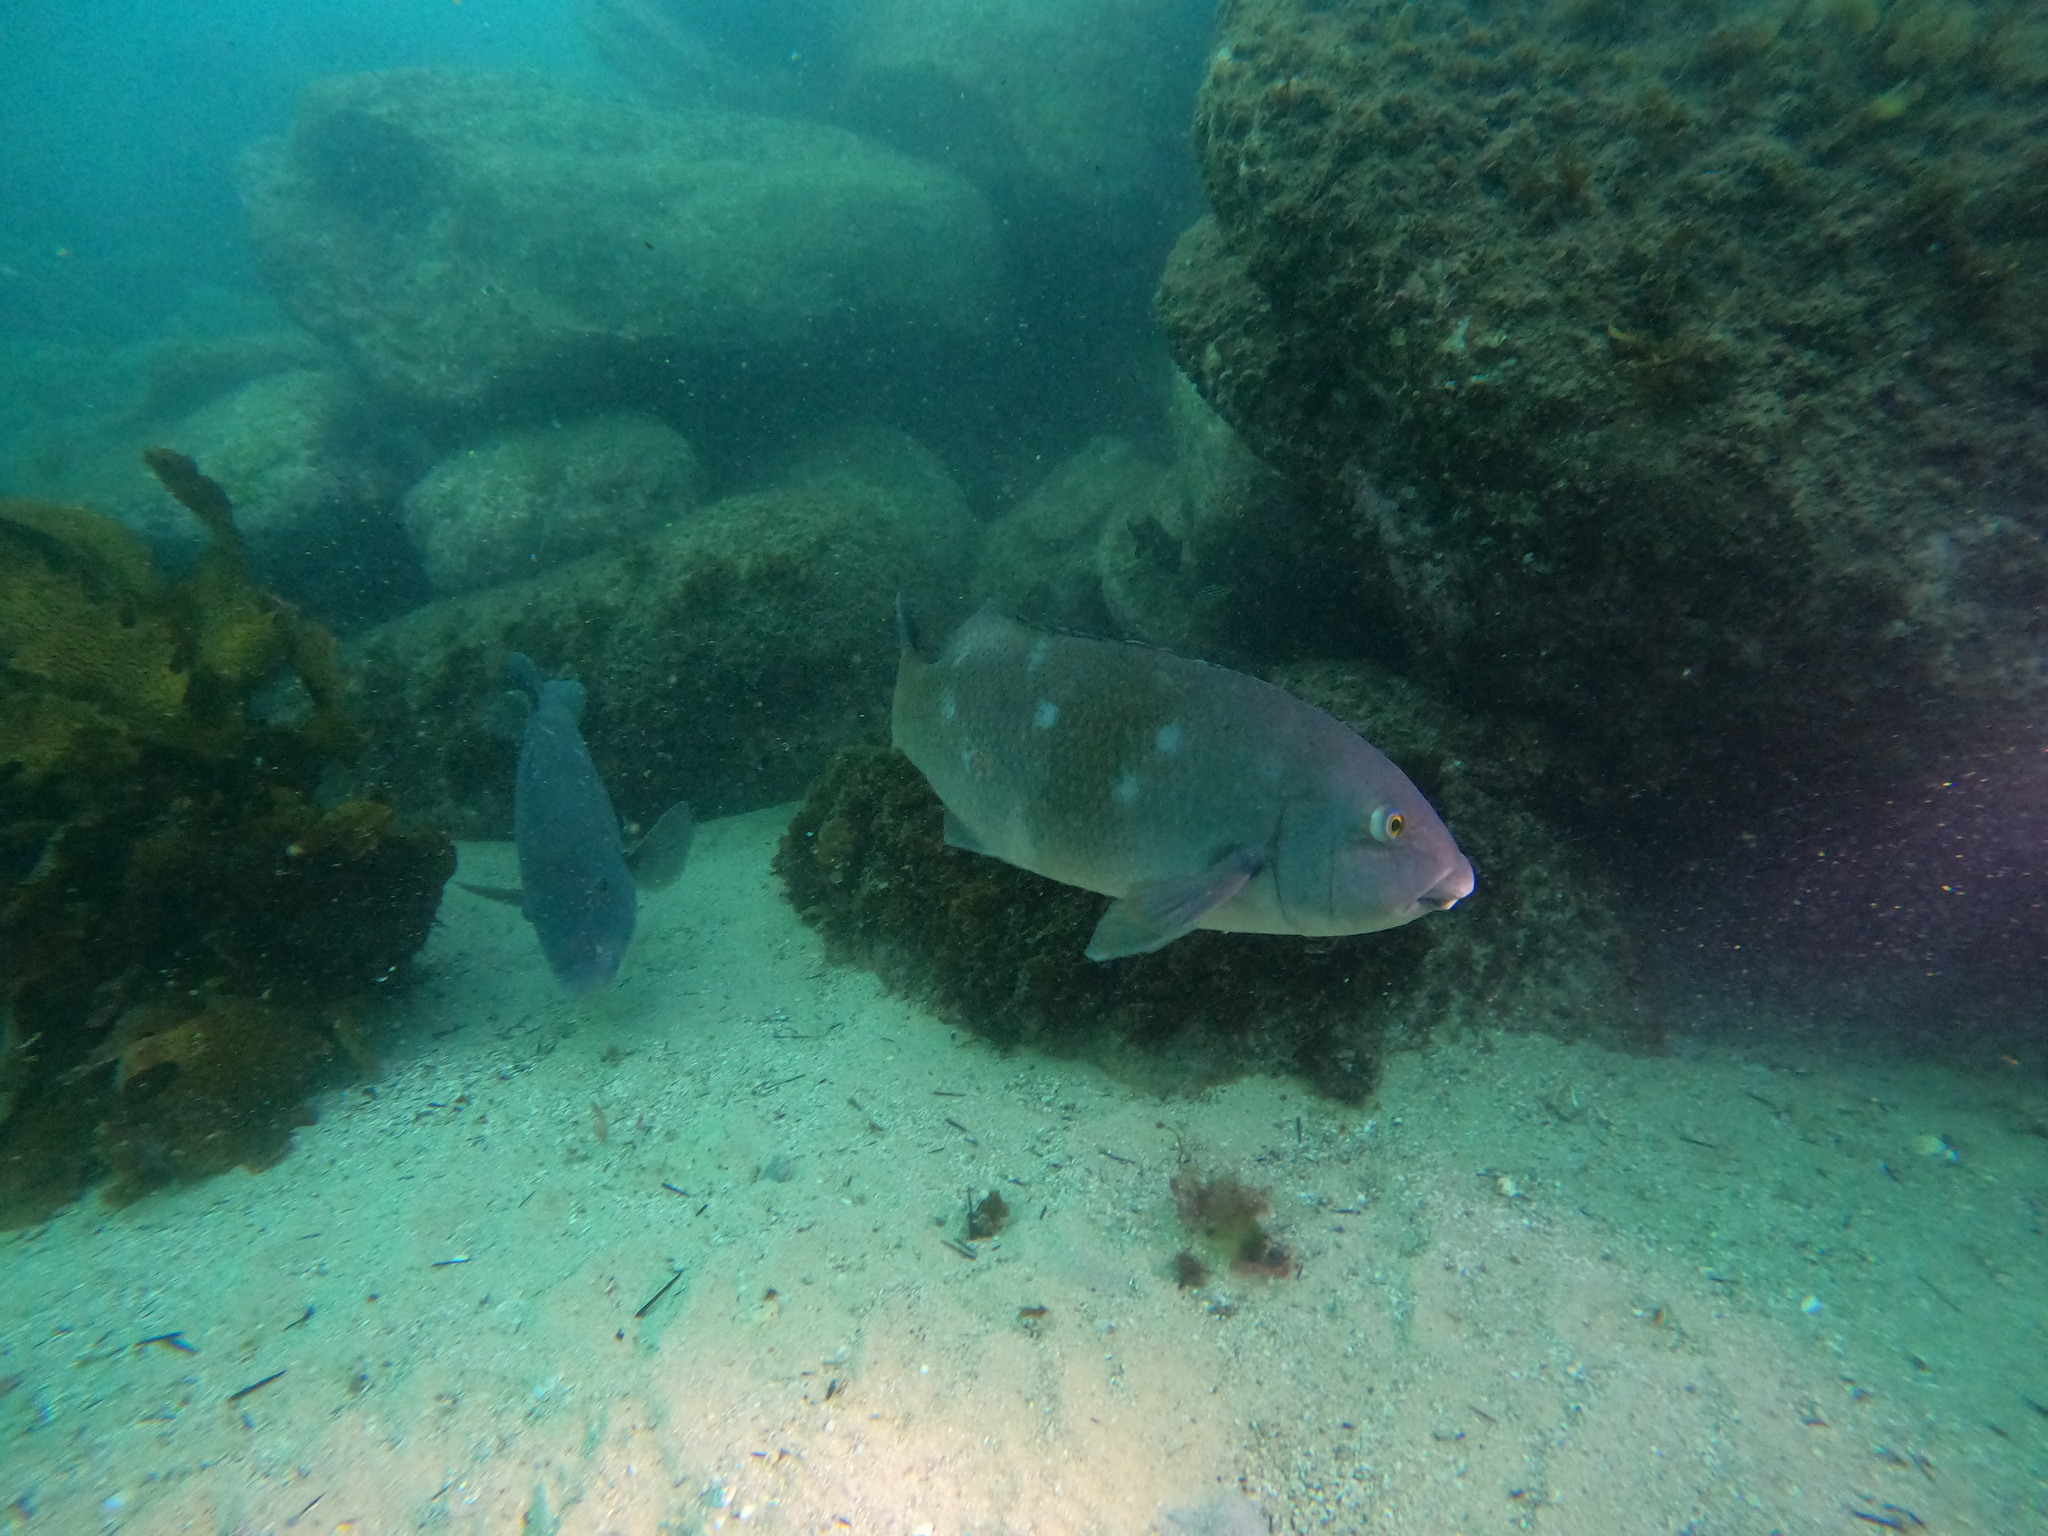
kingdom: Animalia
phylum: Chordata
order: Perciformes
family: Labridae
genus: Achoerodus
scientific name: Achoerodus viridis
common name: Brown groper
